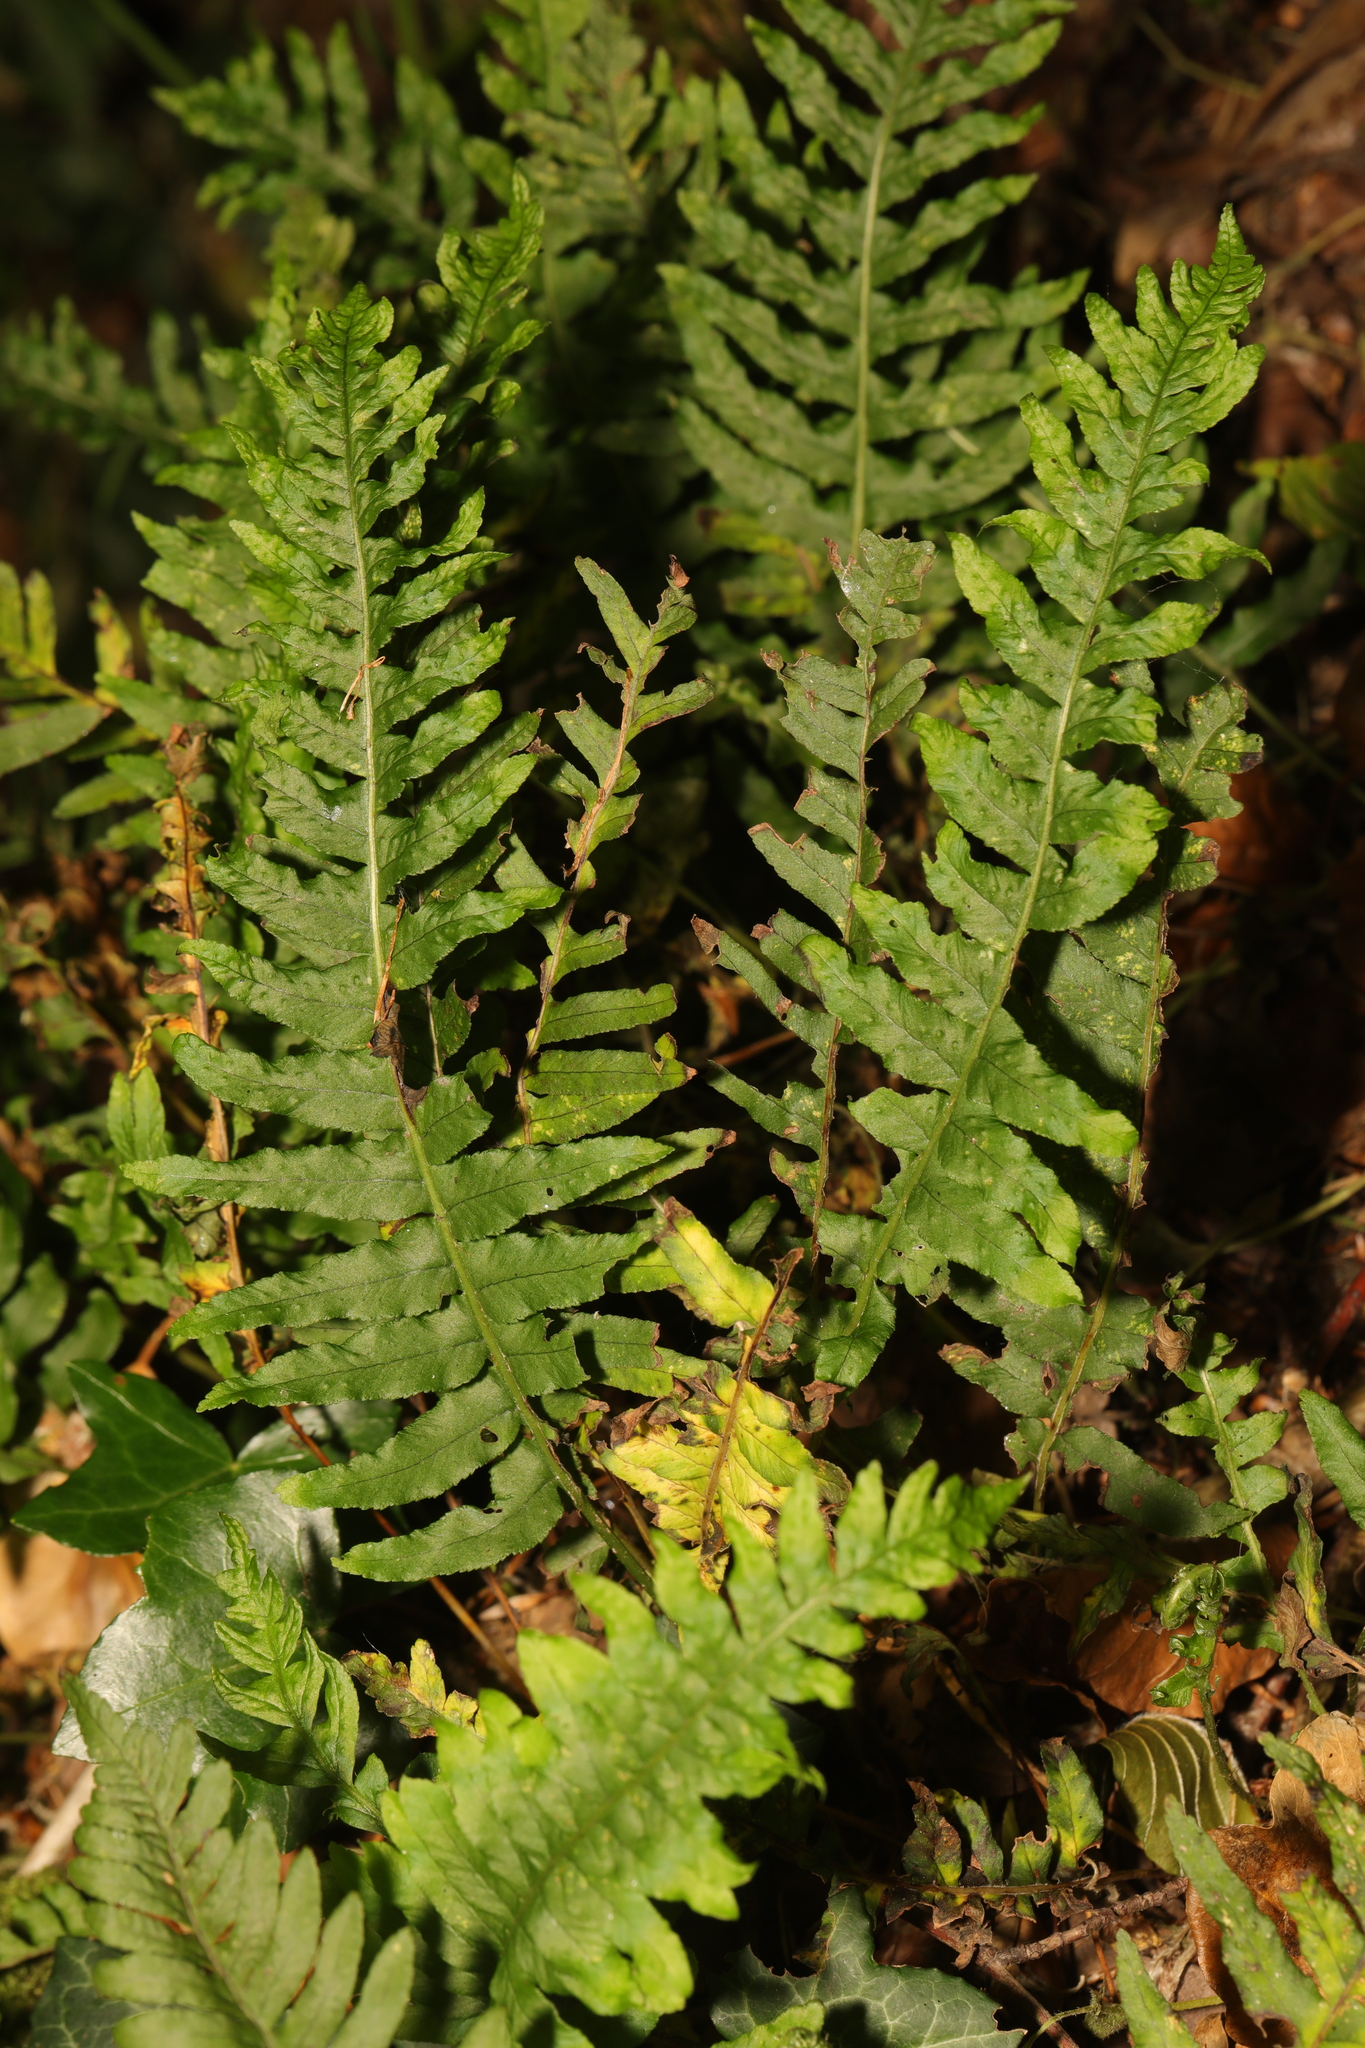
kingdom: Plantae
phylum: Tracheophyta
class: Polypodiopsida
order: Polypodiales
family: Polypodiaceae
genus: Polypodium
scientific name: Polypodium vulgare
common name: Common polypody
